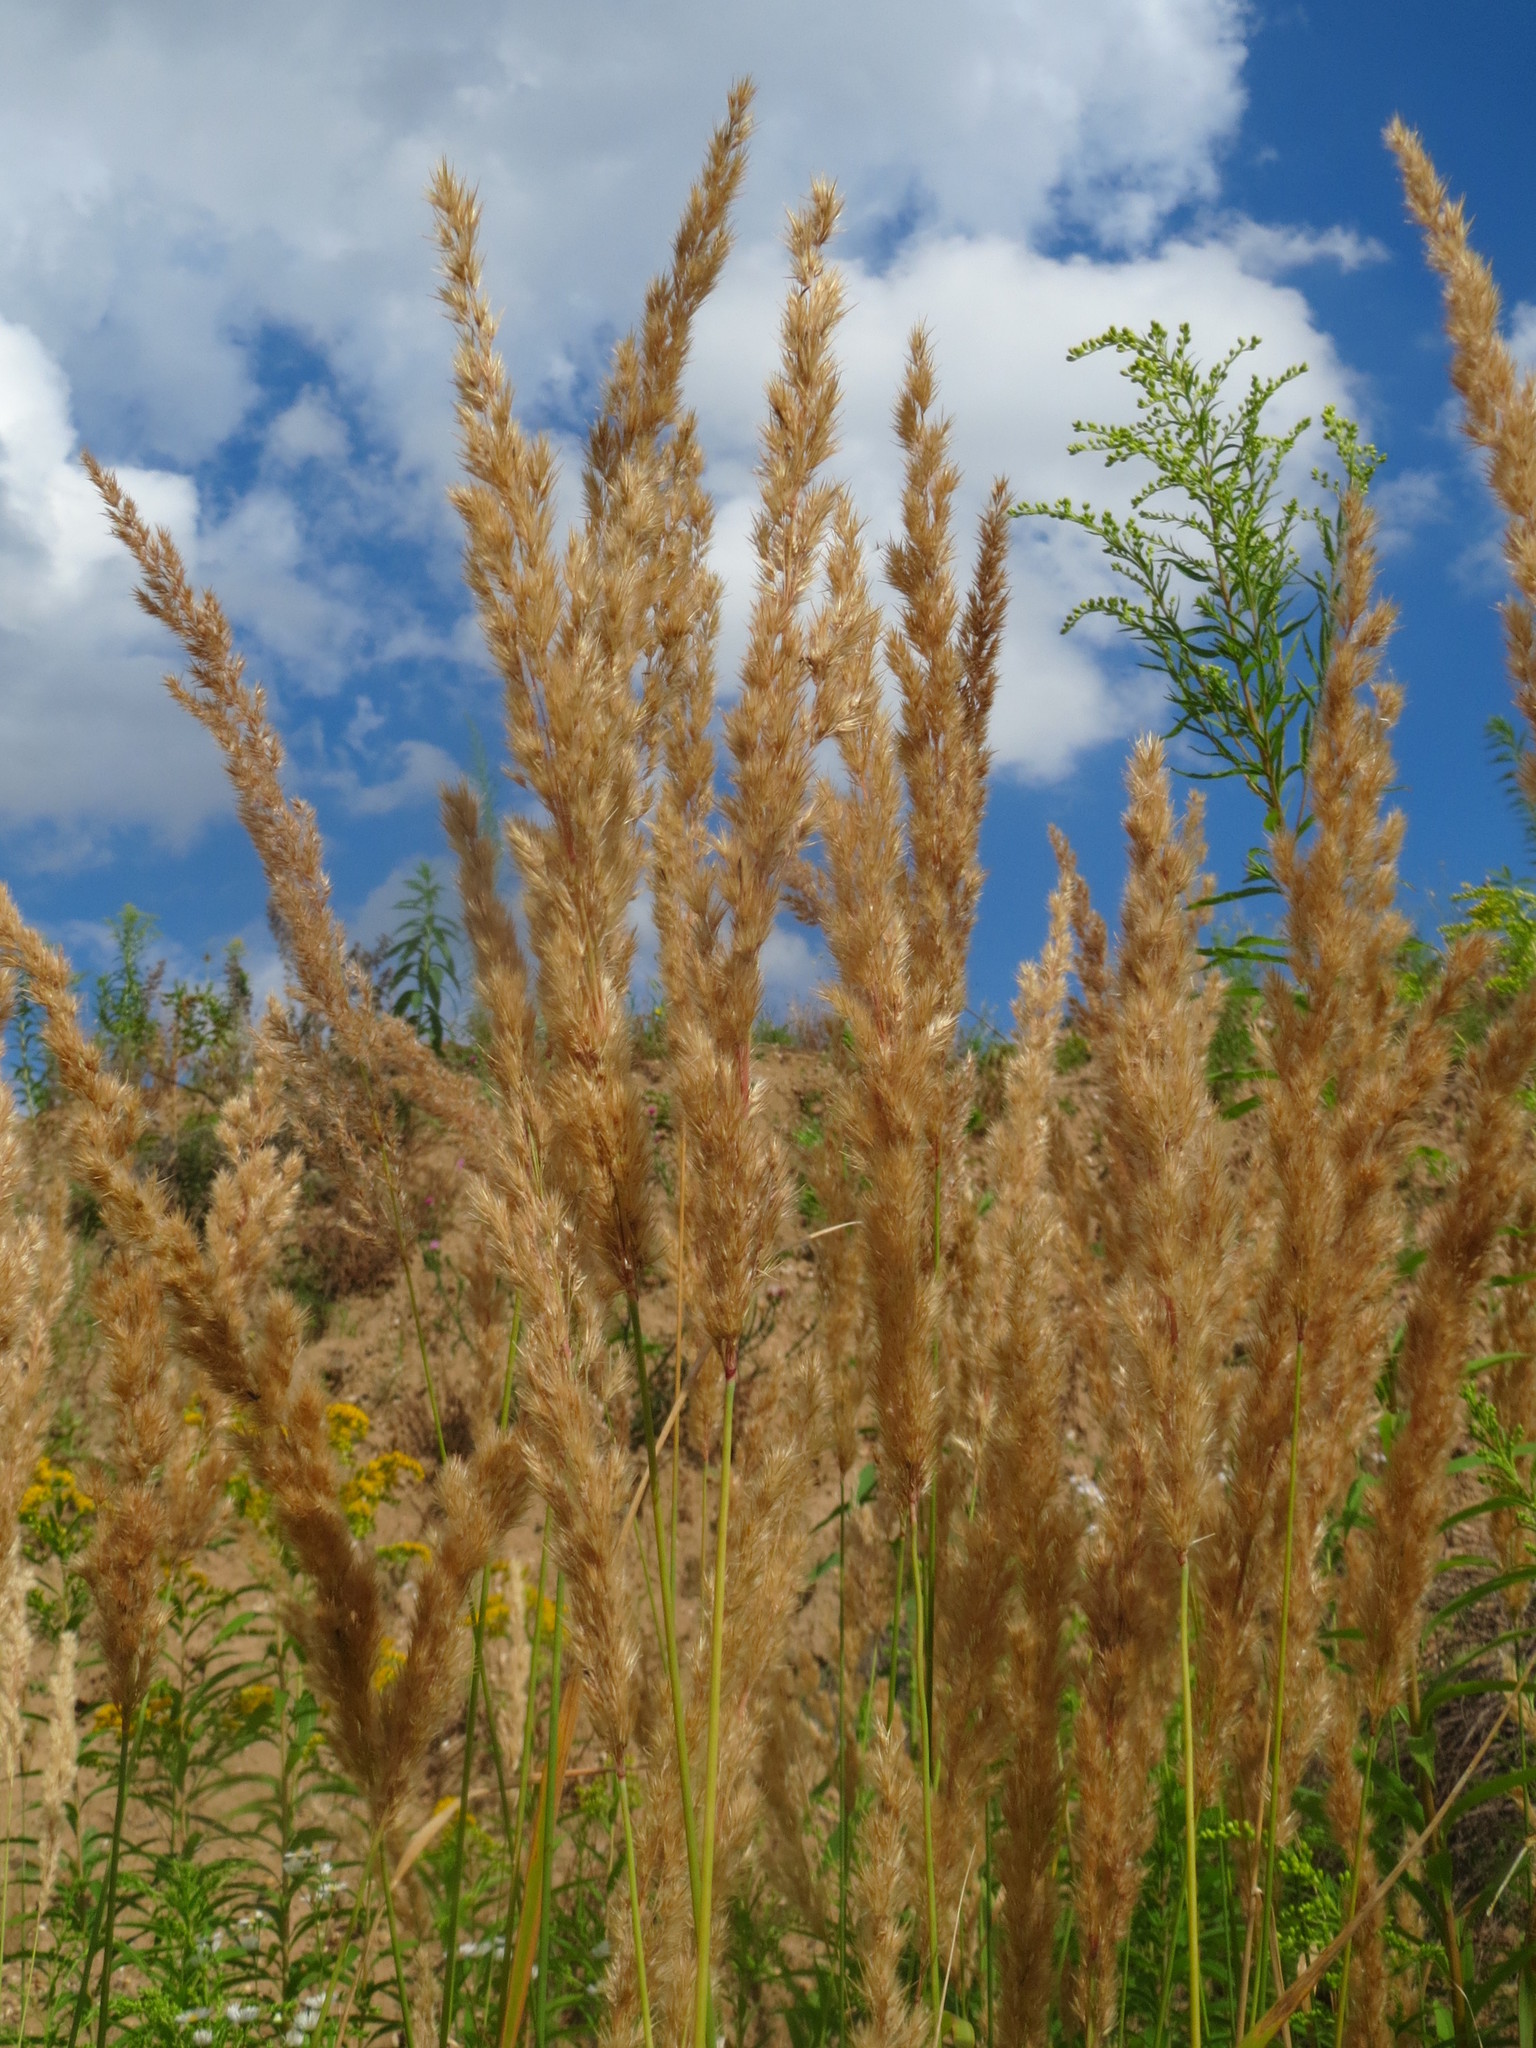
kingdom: Plantae
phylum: Tracheophyta
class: Liliopsida
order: Poales
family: Poaceae
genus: Calamagrostis
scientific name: Calamagrostis epigejos
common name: Wood small-reed
